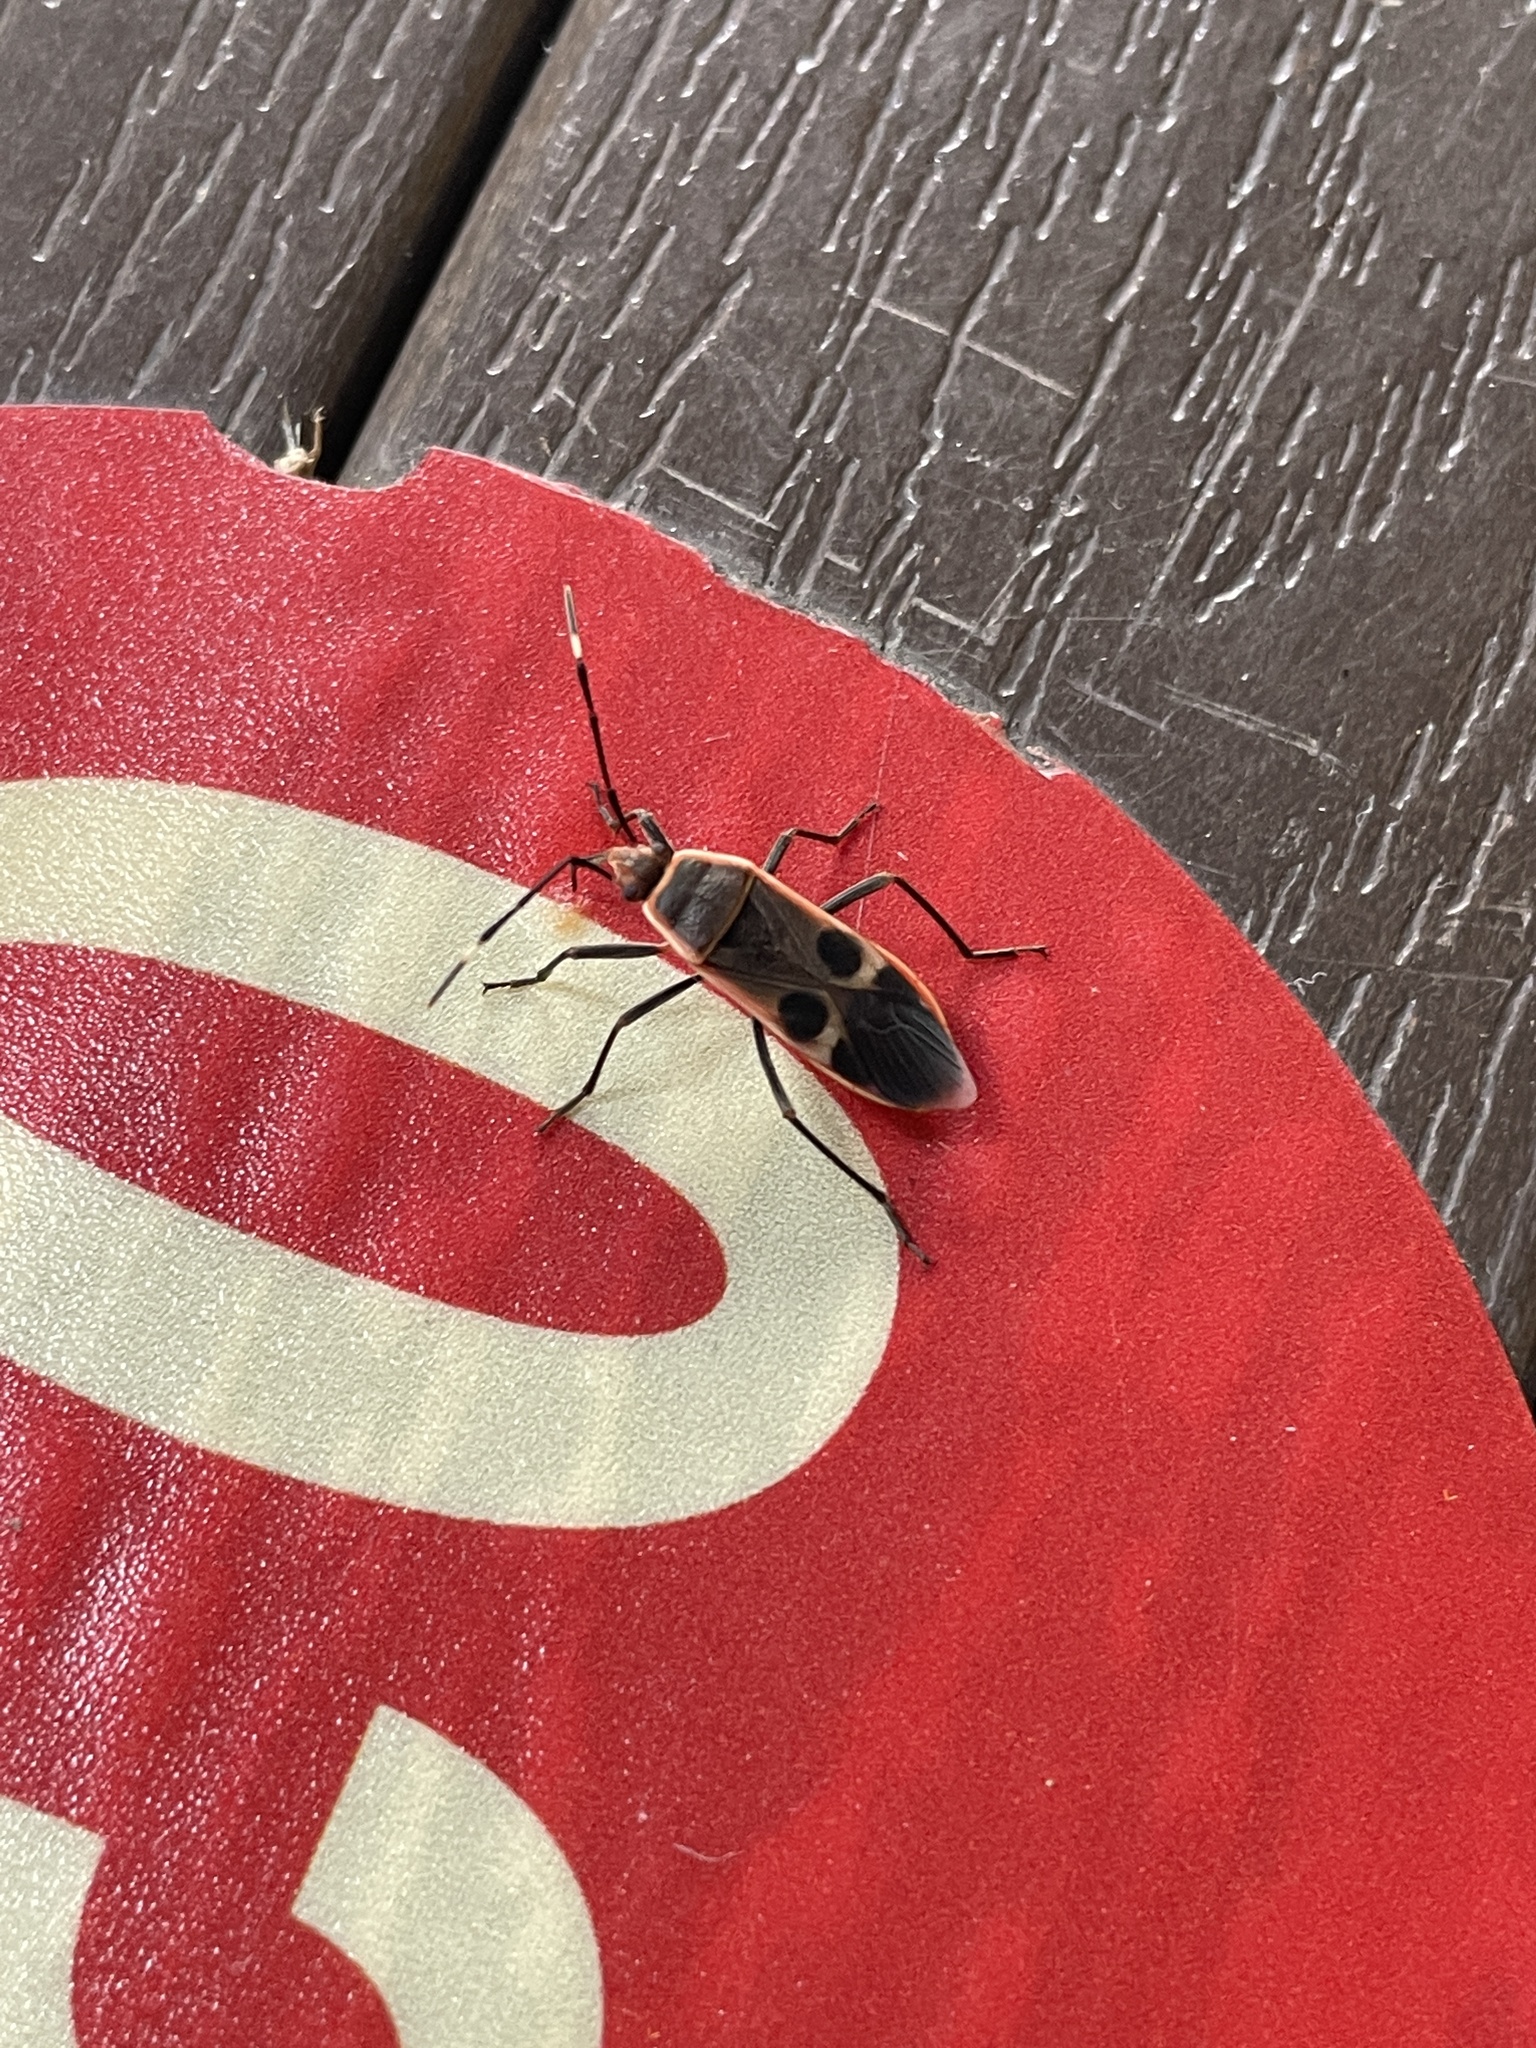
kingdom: Animalia
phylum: Arthropoda
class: Insecta
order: Hemiptera
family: Largidae
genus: Physopelta
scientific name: Physopelta gutta
